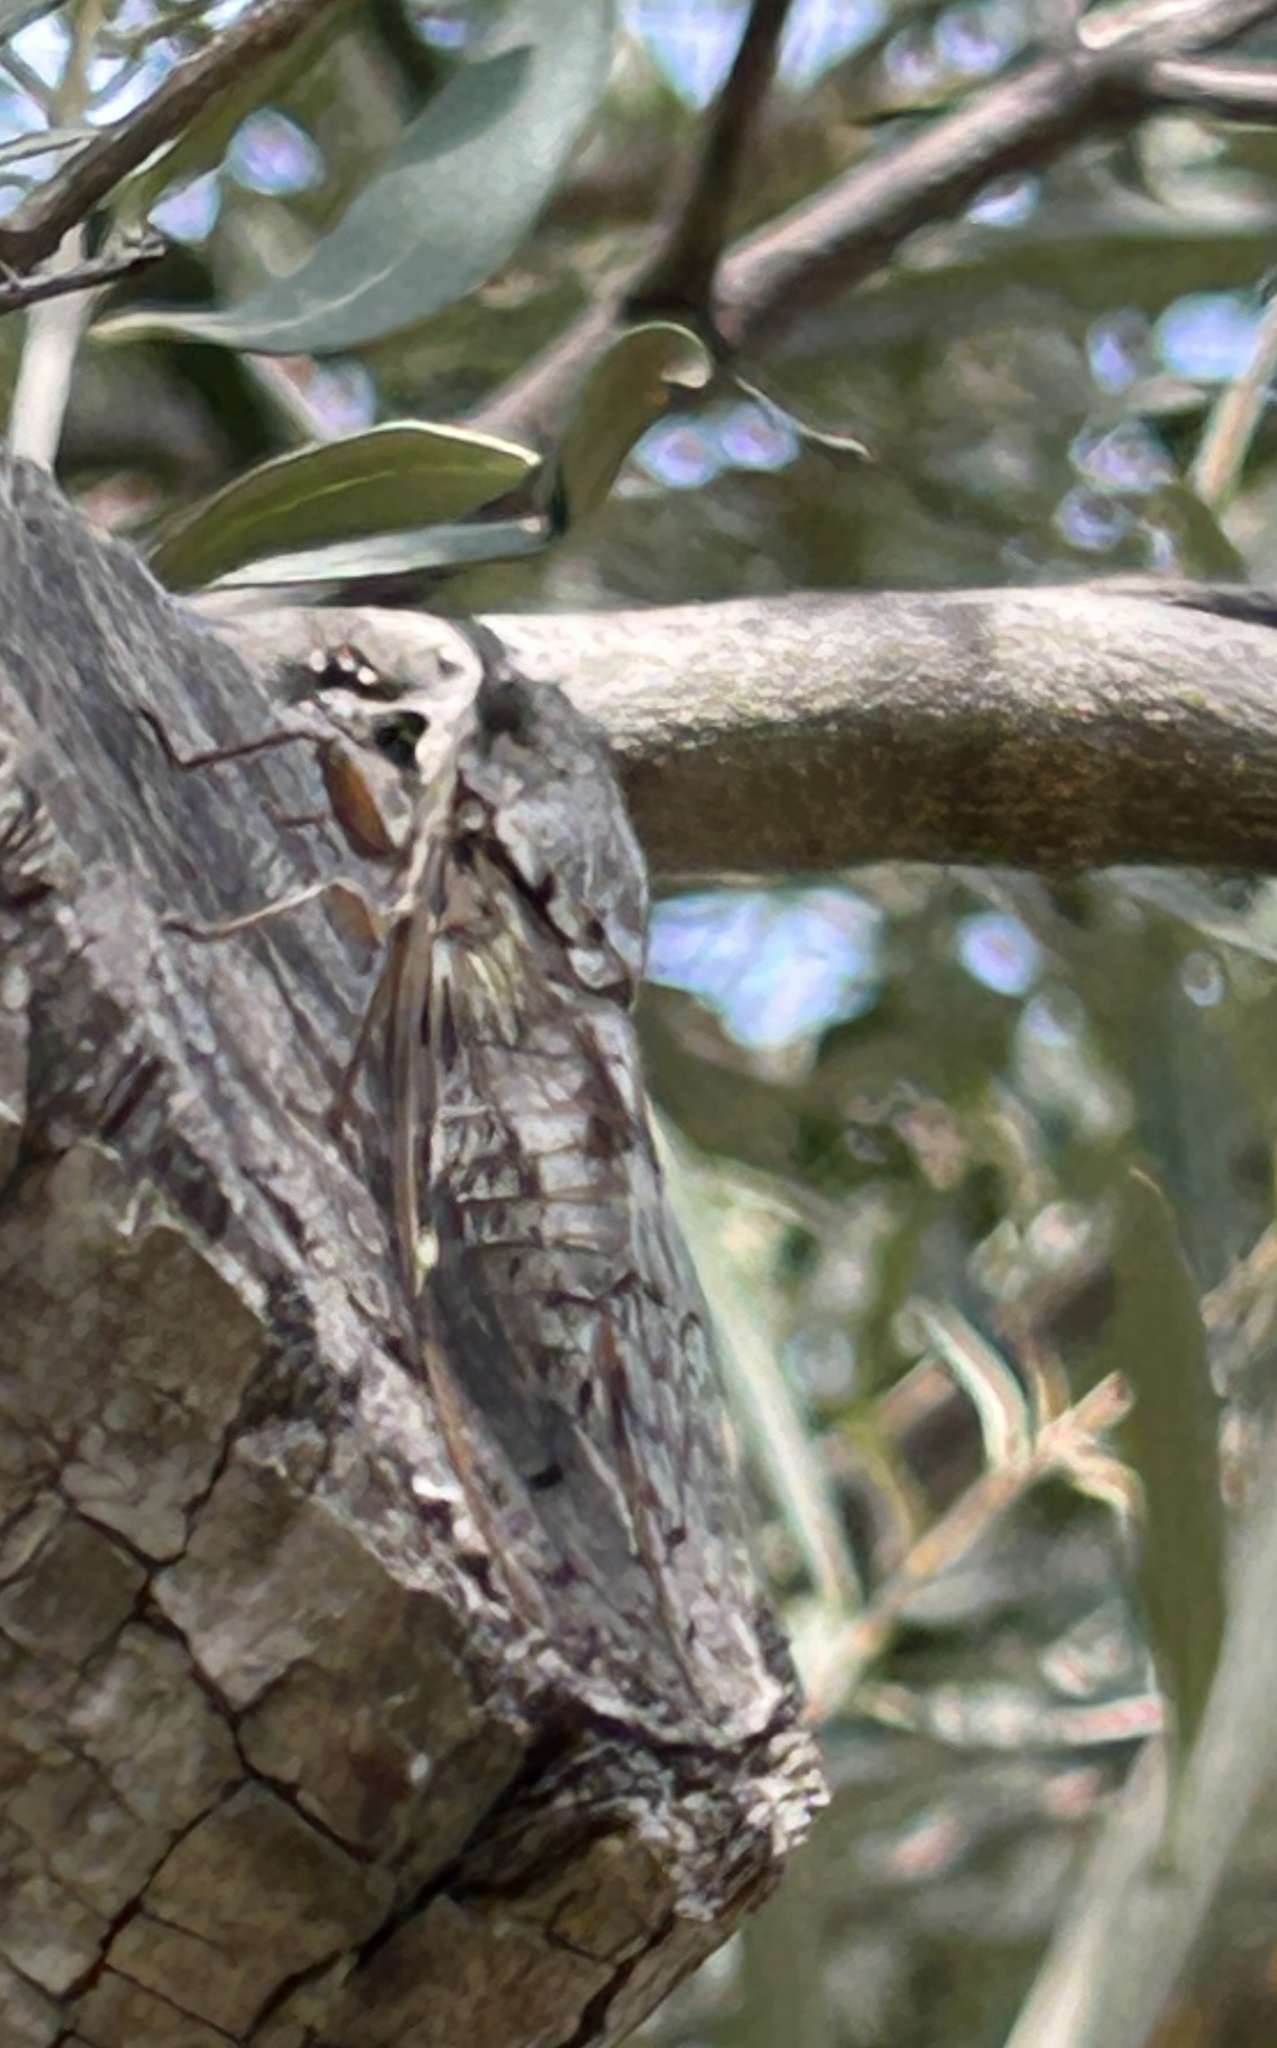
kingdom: Animalia
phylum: Arthropoda
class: Insecta
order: Hemiptera
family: Cicadidae
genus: Cicada
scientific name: Cicada orni
